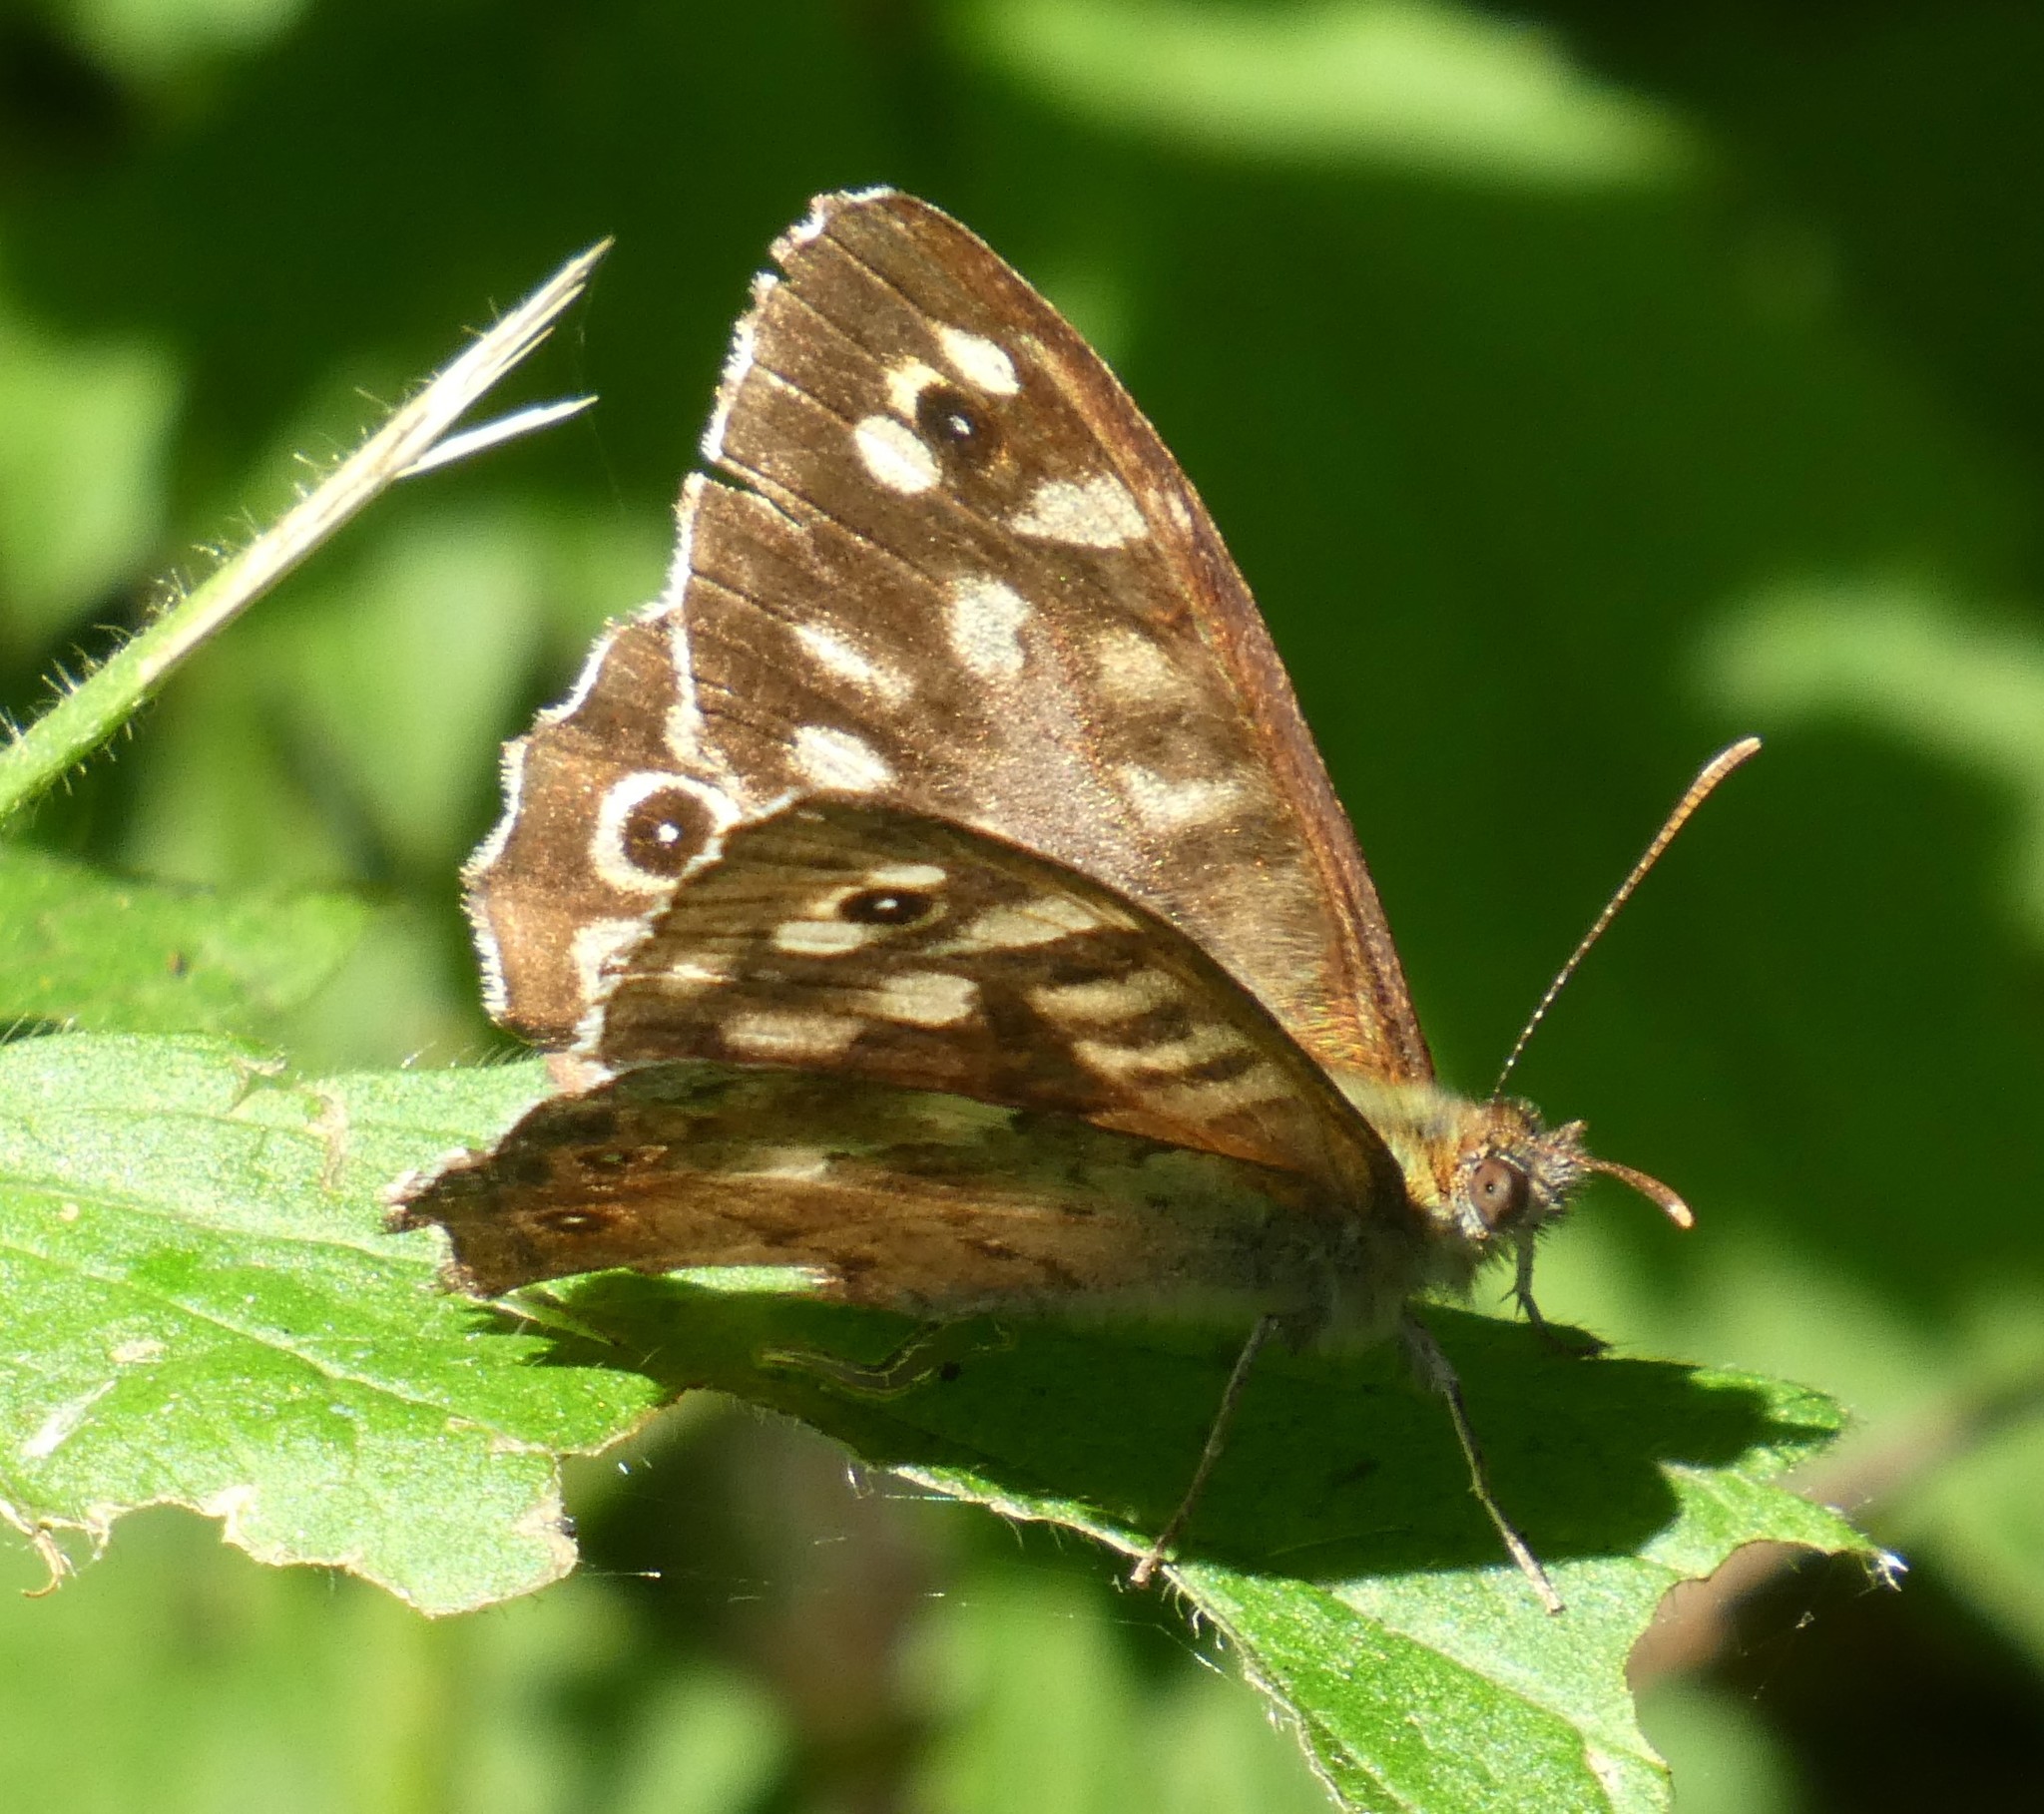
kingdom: Animalia
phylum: Arthropoda
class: Insecta
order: Lepidoptera
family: Nymphalidae
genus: Pararge
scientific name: Pararge aegeria
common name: Speckled wood
